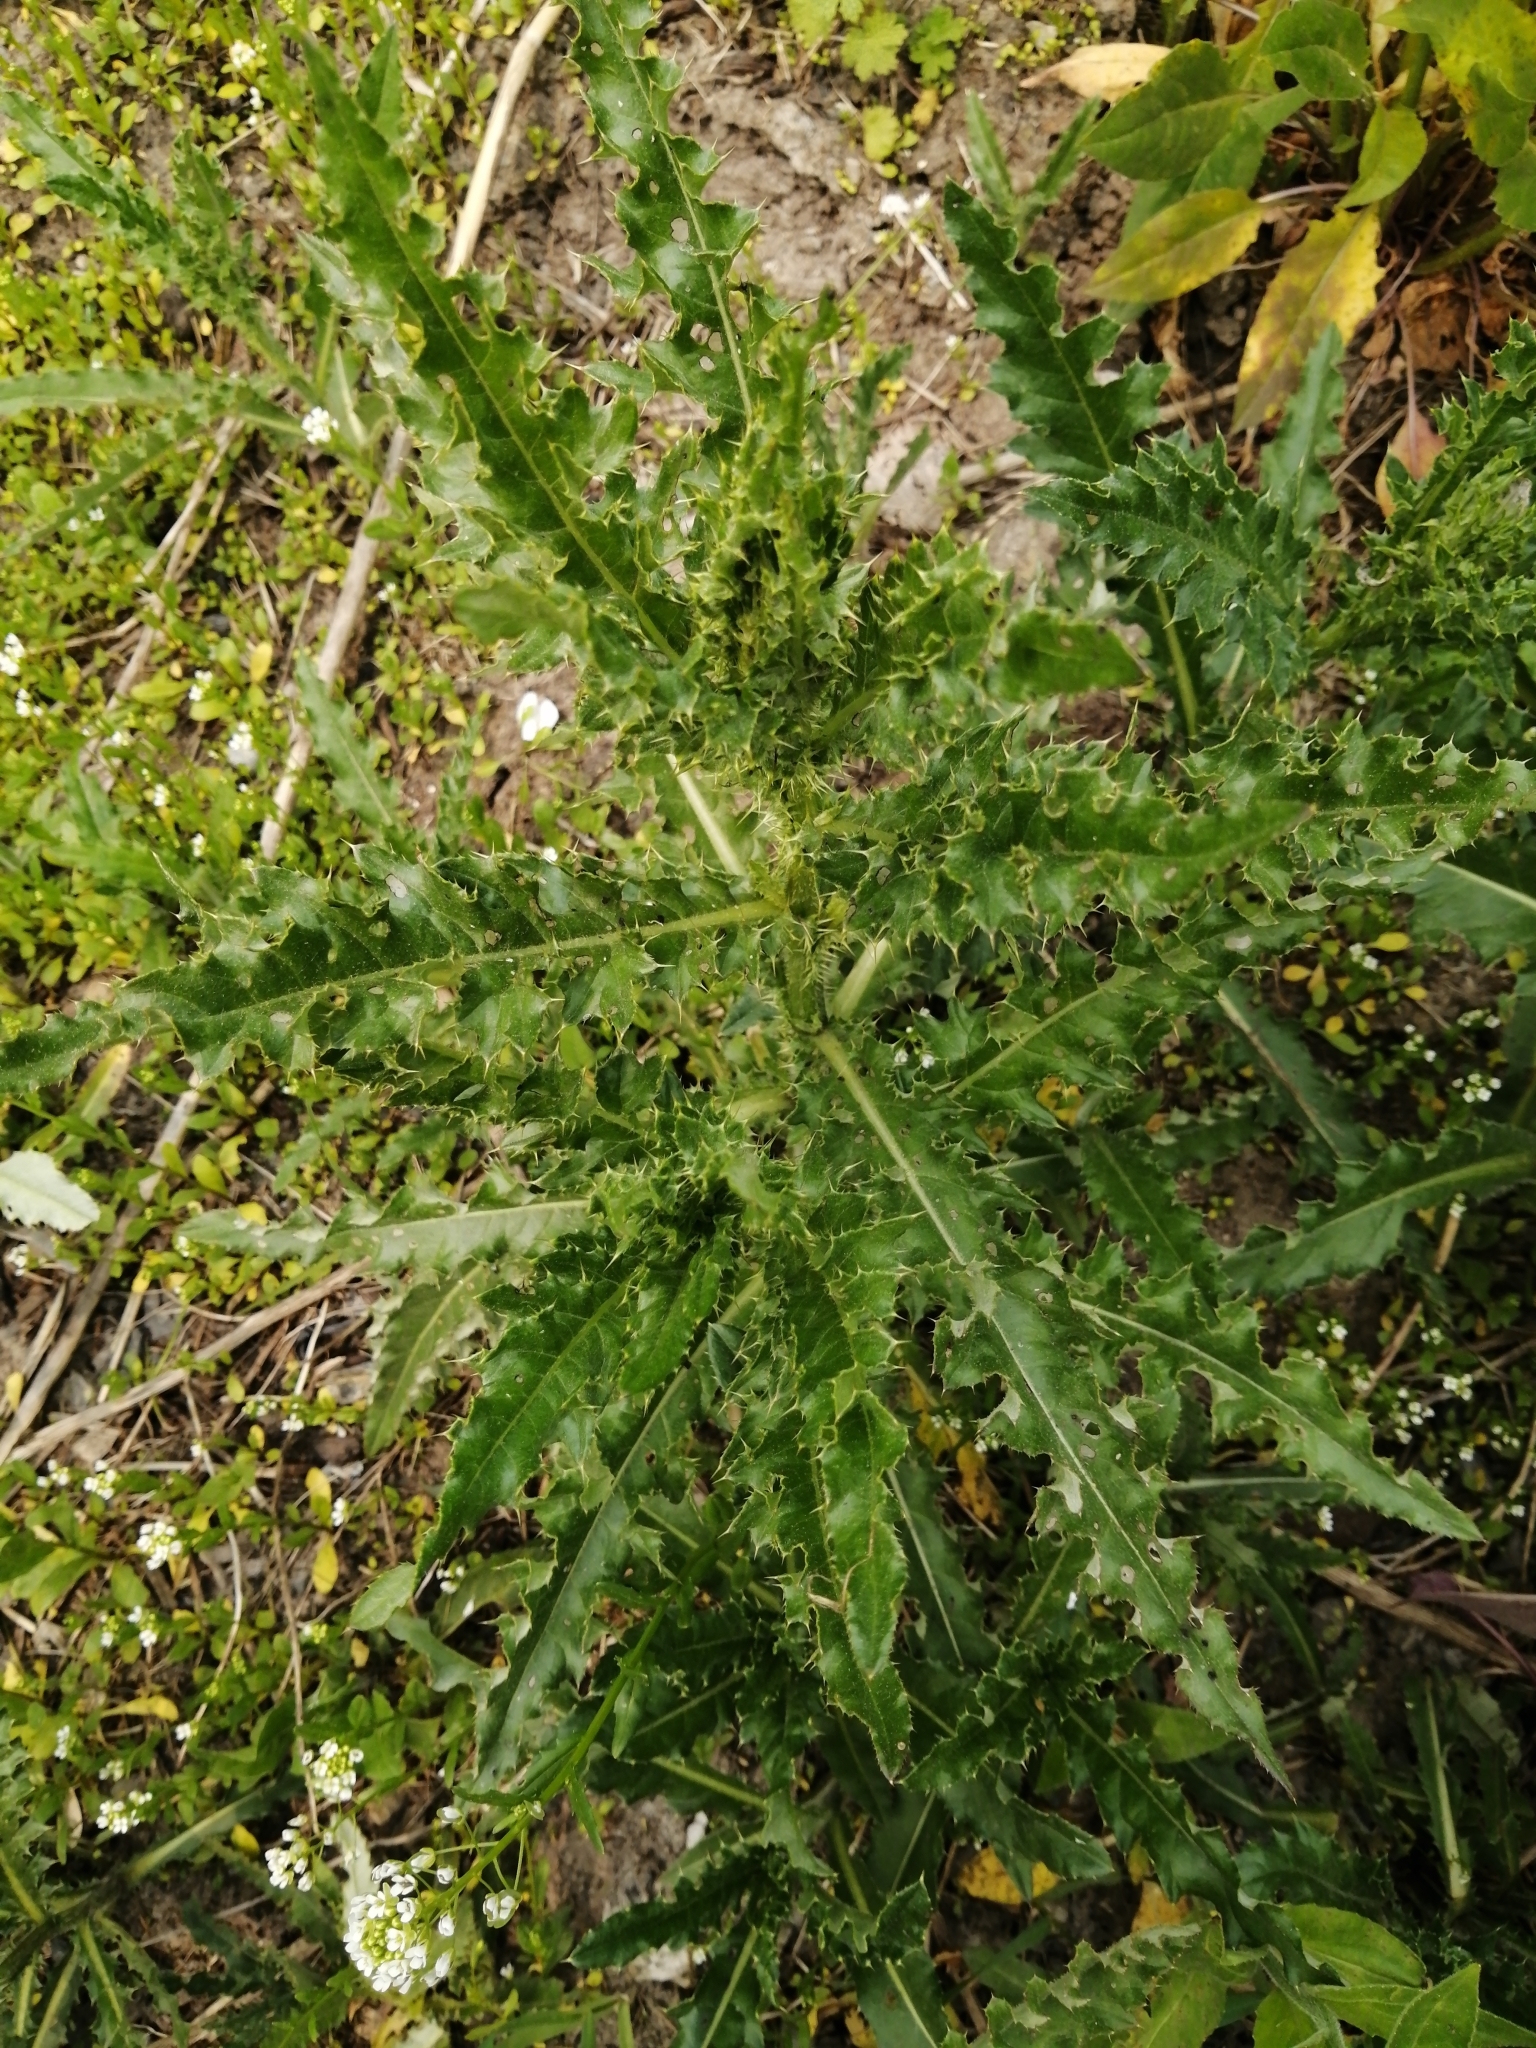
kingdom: Plantae
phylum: Tracheophyta
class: Magnoliopsida
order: Asterales
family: Asteraceae
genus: Cirsium
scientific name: Cirsium arvense
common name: Creeping thistle
